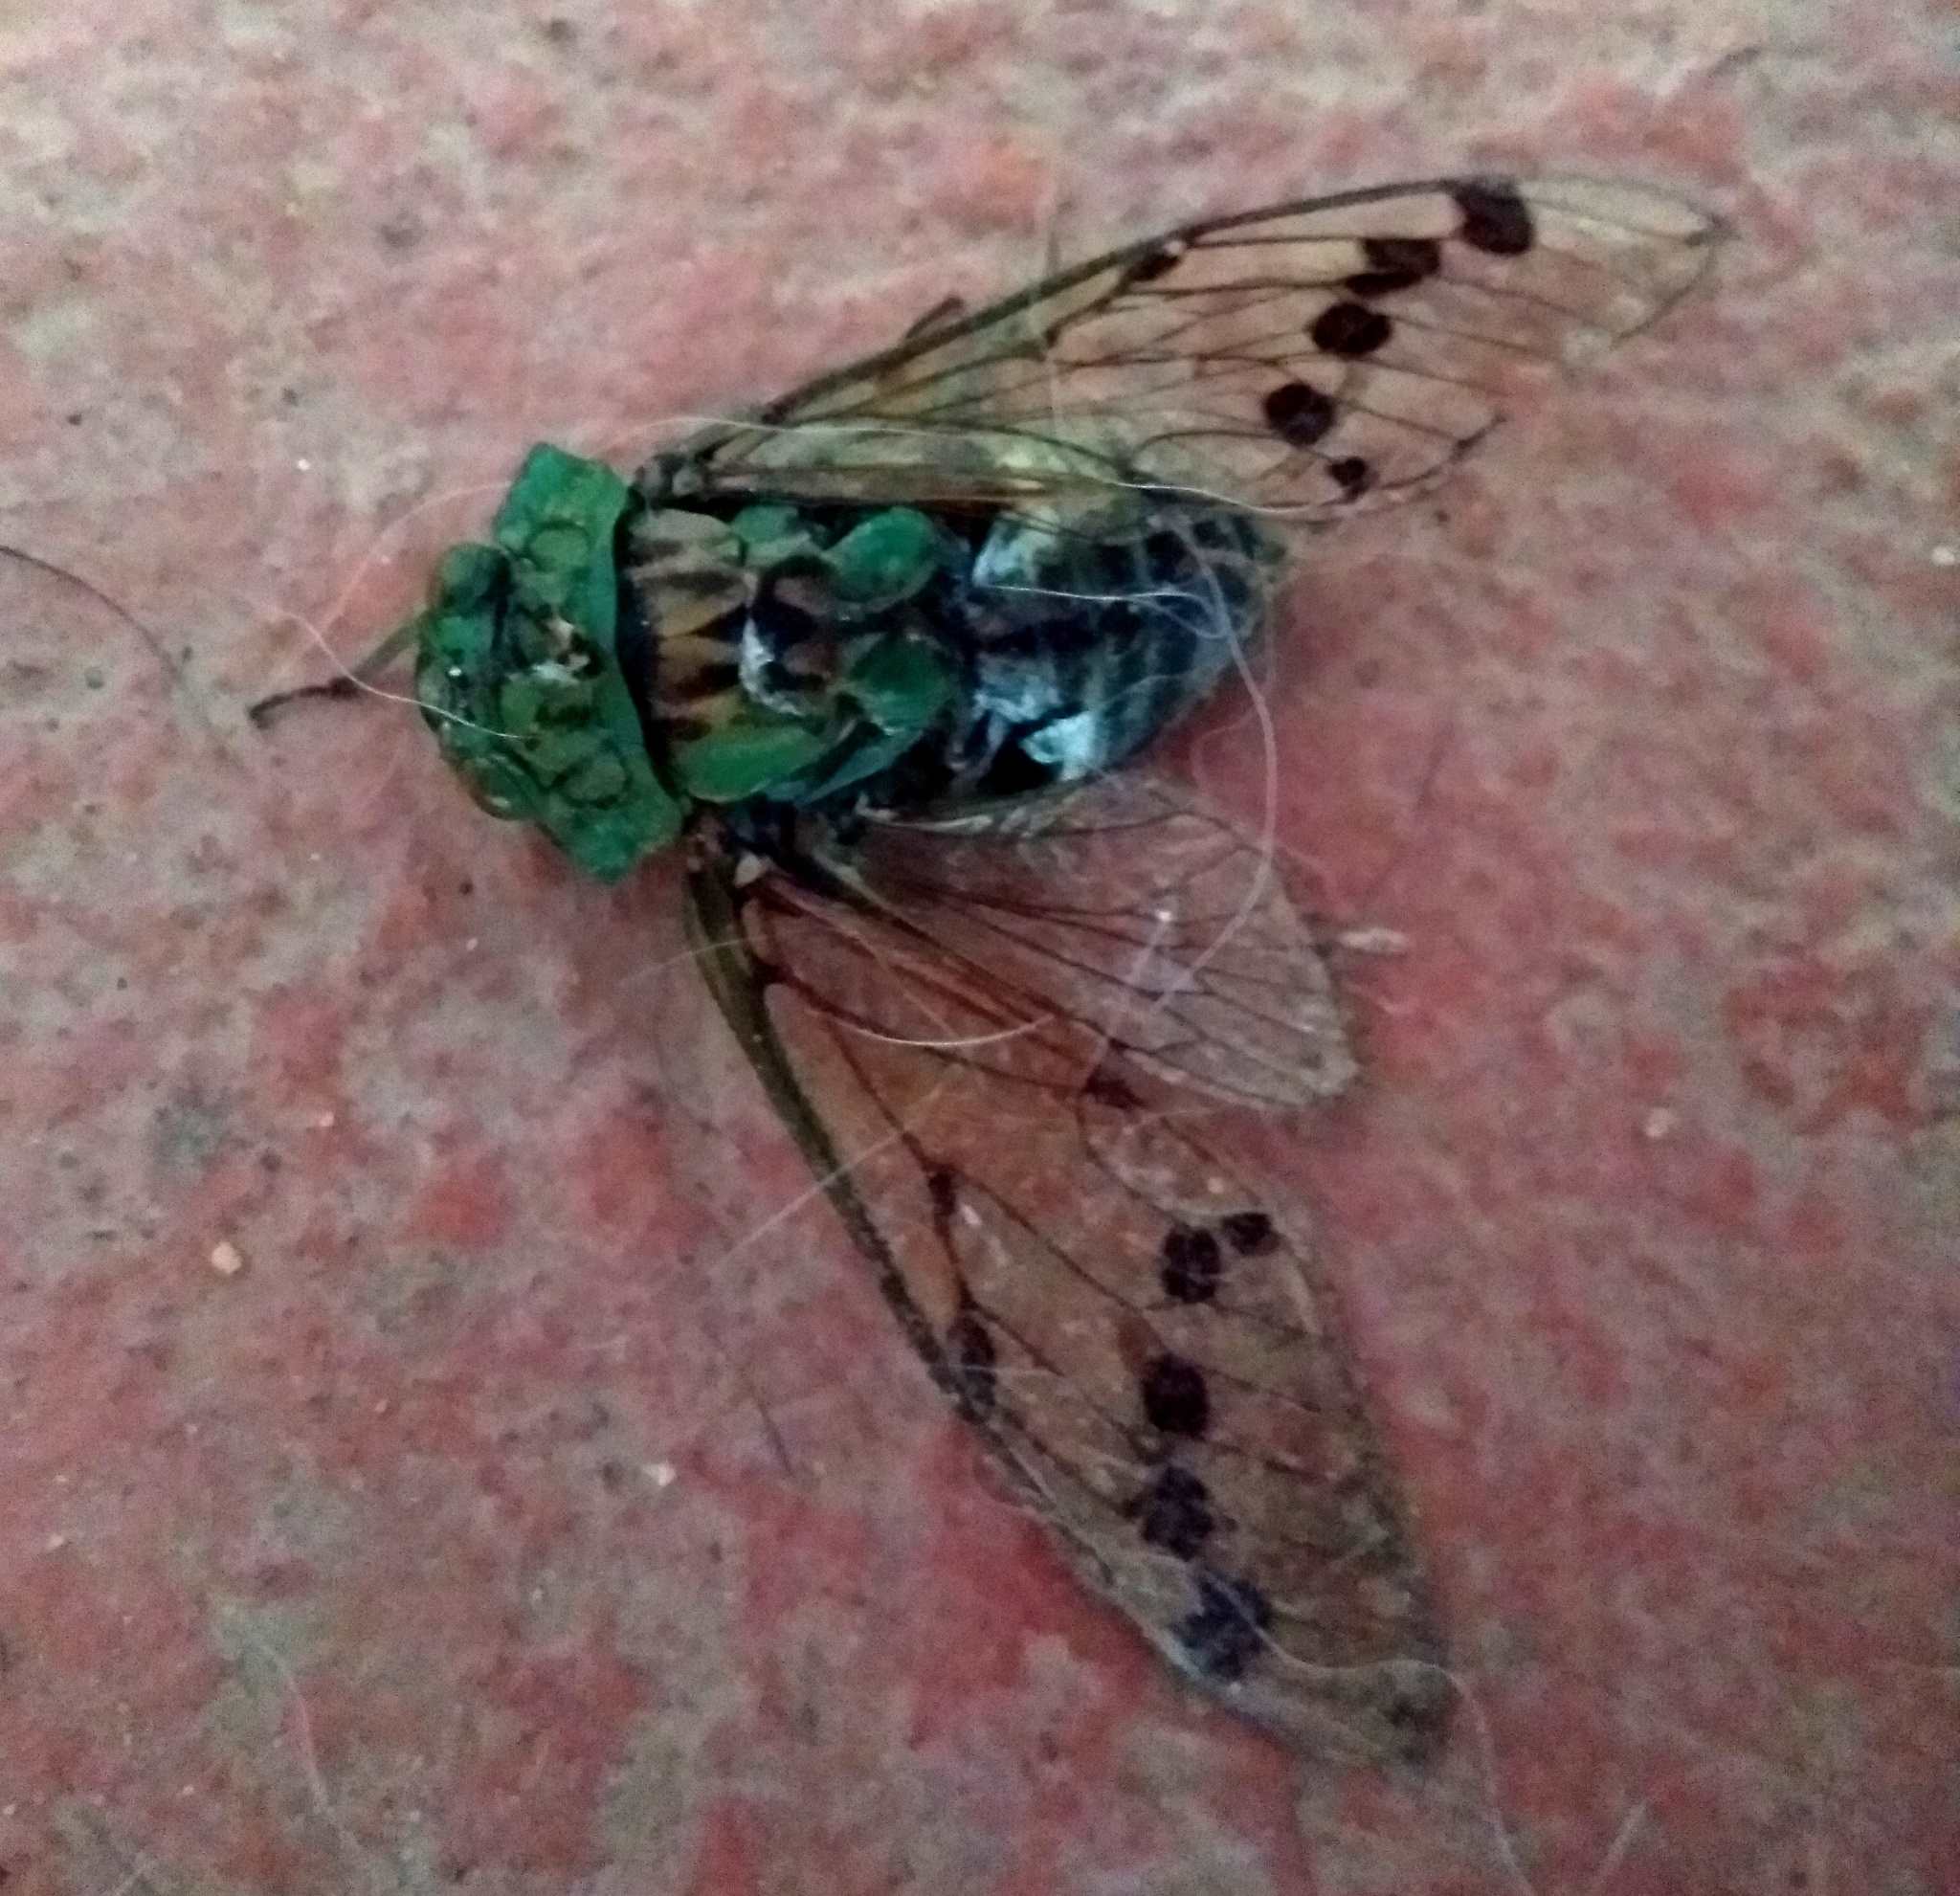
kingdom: Animalia
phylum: Arthropoda
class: Insecta
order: Hemiptera
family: Cicadidae
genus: Zammara
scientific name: Zammara tympanum
